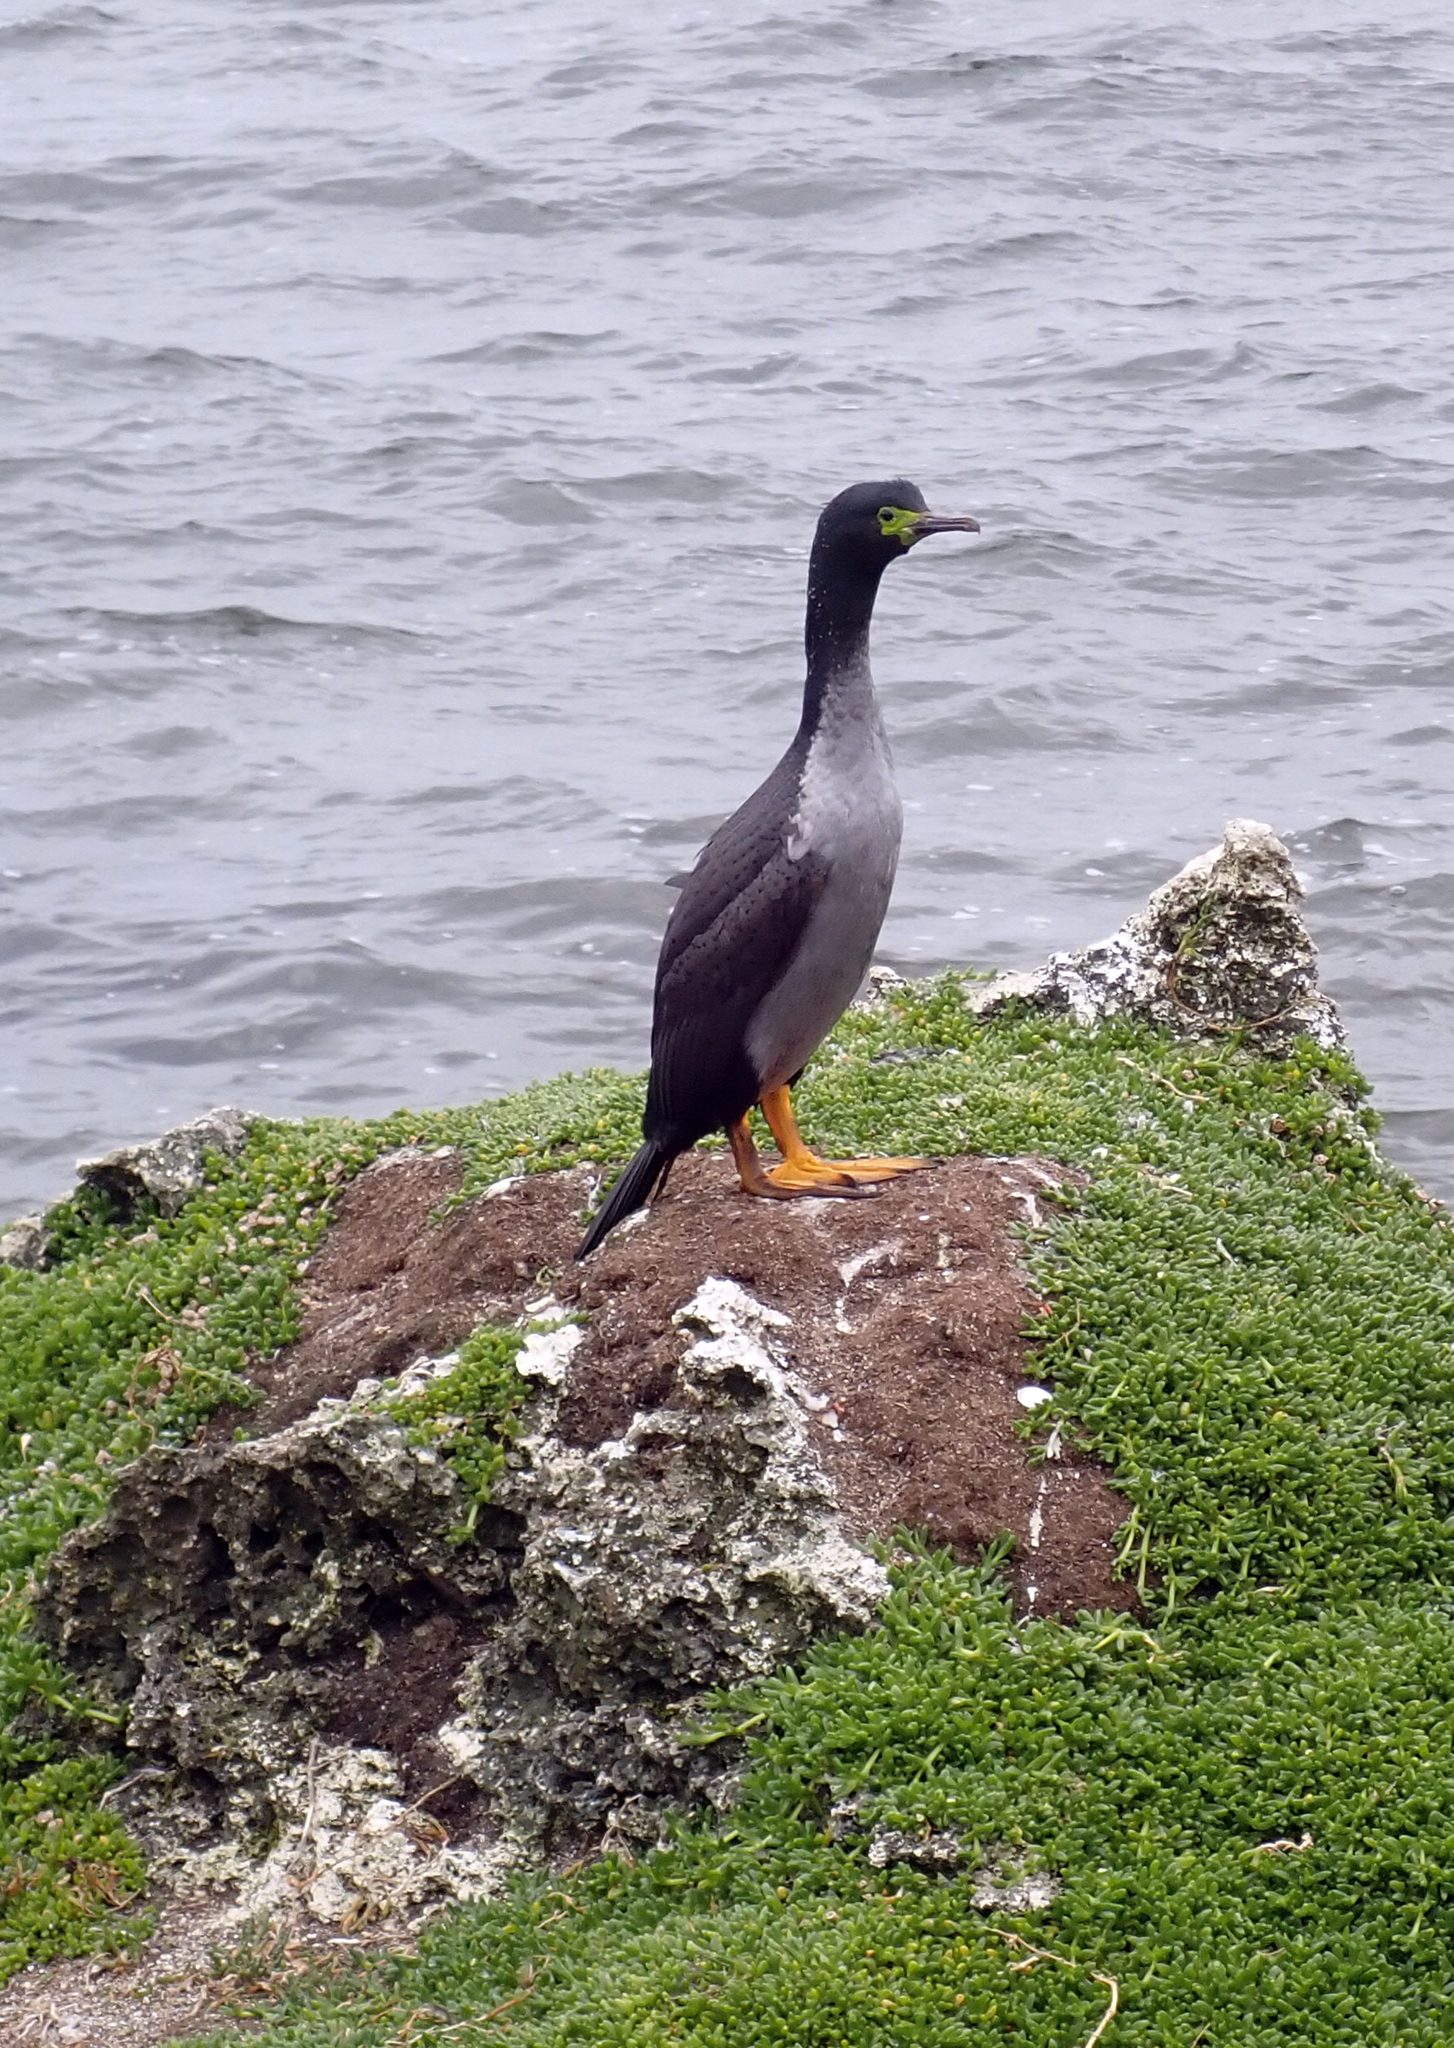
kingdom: Animalia
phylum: Chordata
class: Aves
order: Suliformes
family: Phalacrocoracidae
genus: Phalacrocorax
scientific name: Phalacrocorax featherstoni
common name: Pitt shag
